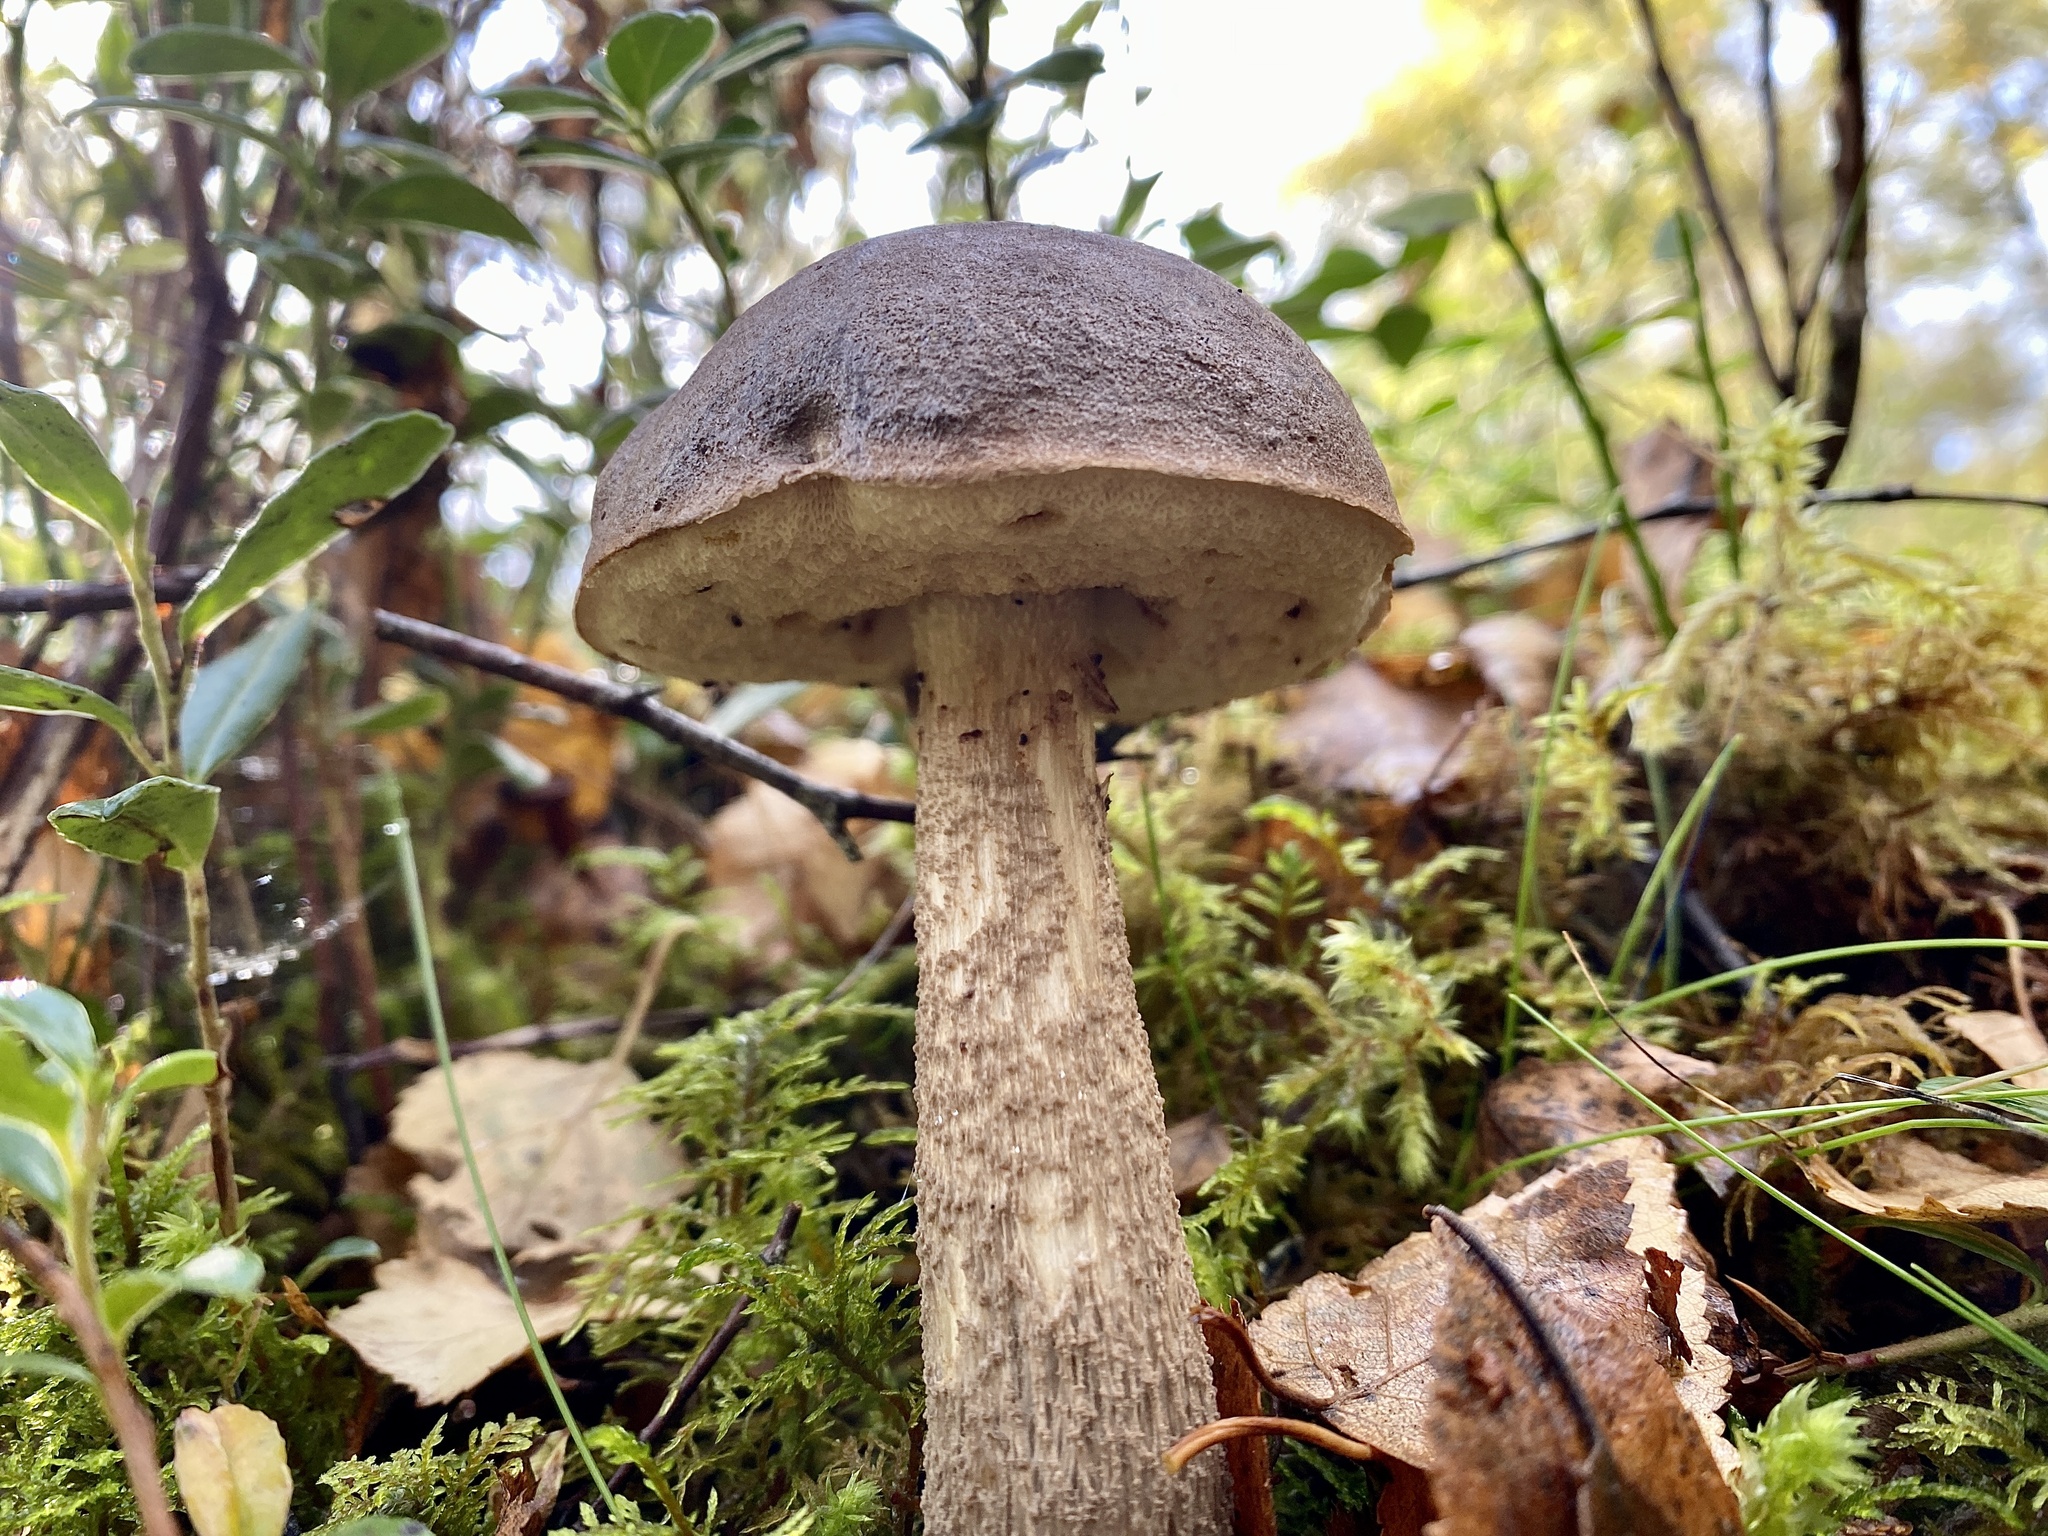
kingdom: Fungi
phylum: Basidiomycota
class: Agaricomycetes
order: Boletales
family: Boletaceae
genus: Leccinum
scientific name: Leccinum scabrum
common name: Blushing bolete
